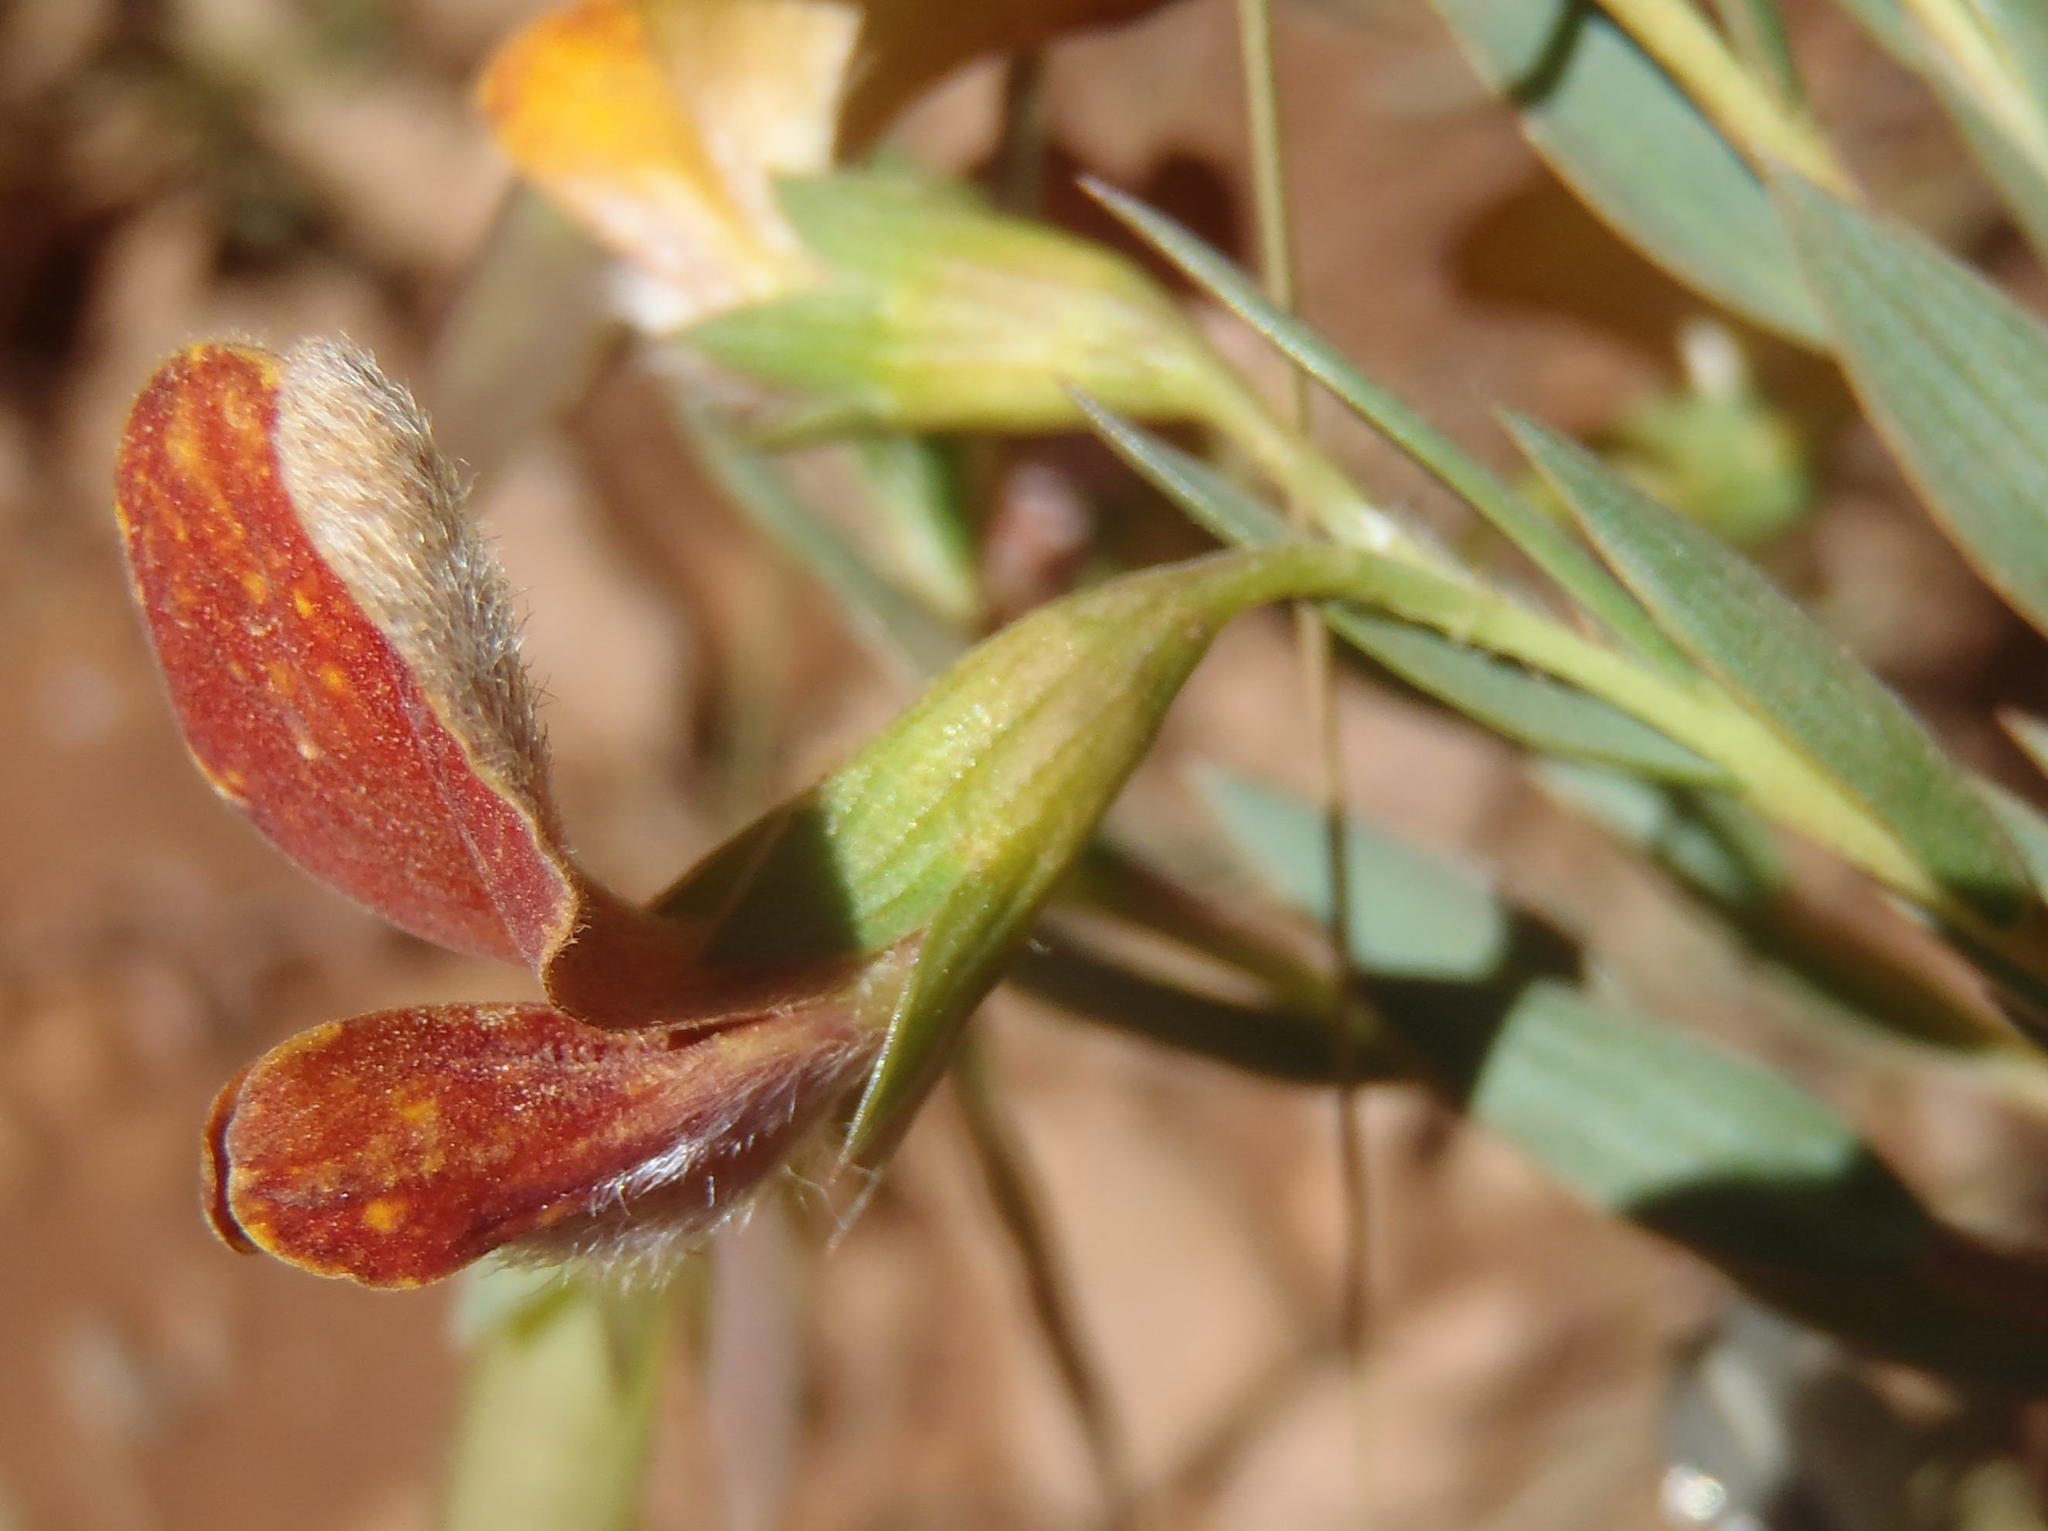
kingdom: Plantae
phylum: Tracheophyta
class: Magnoliopsida
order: Fabales
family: Fabaceae
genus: Aspalathus
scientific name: Aspalathus angustifolia
